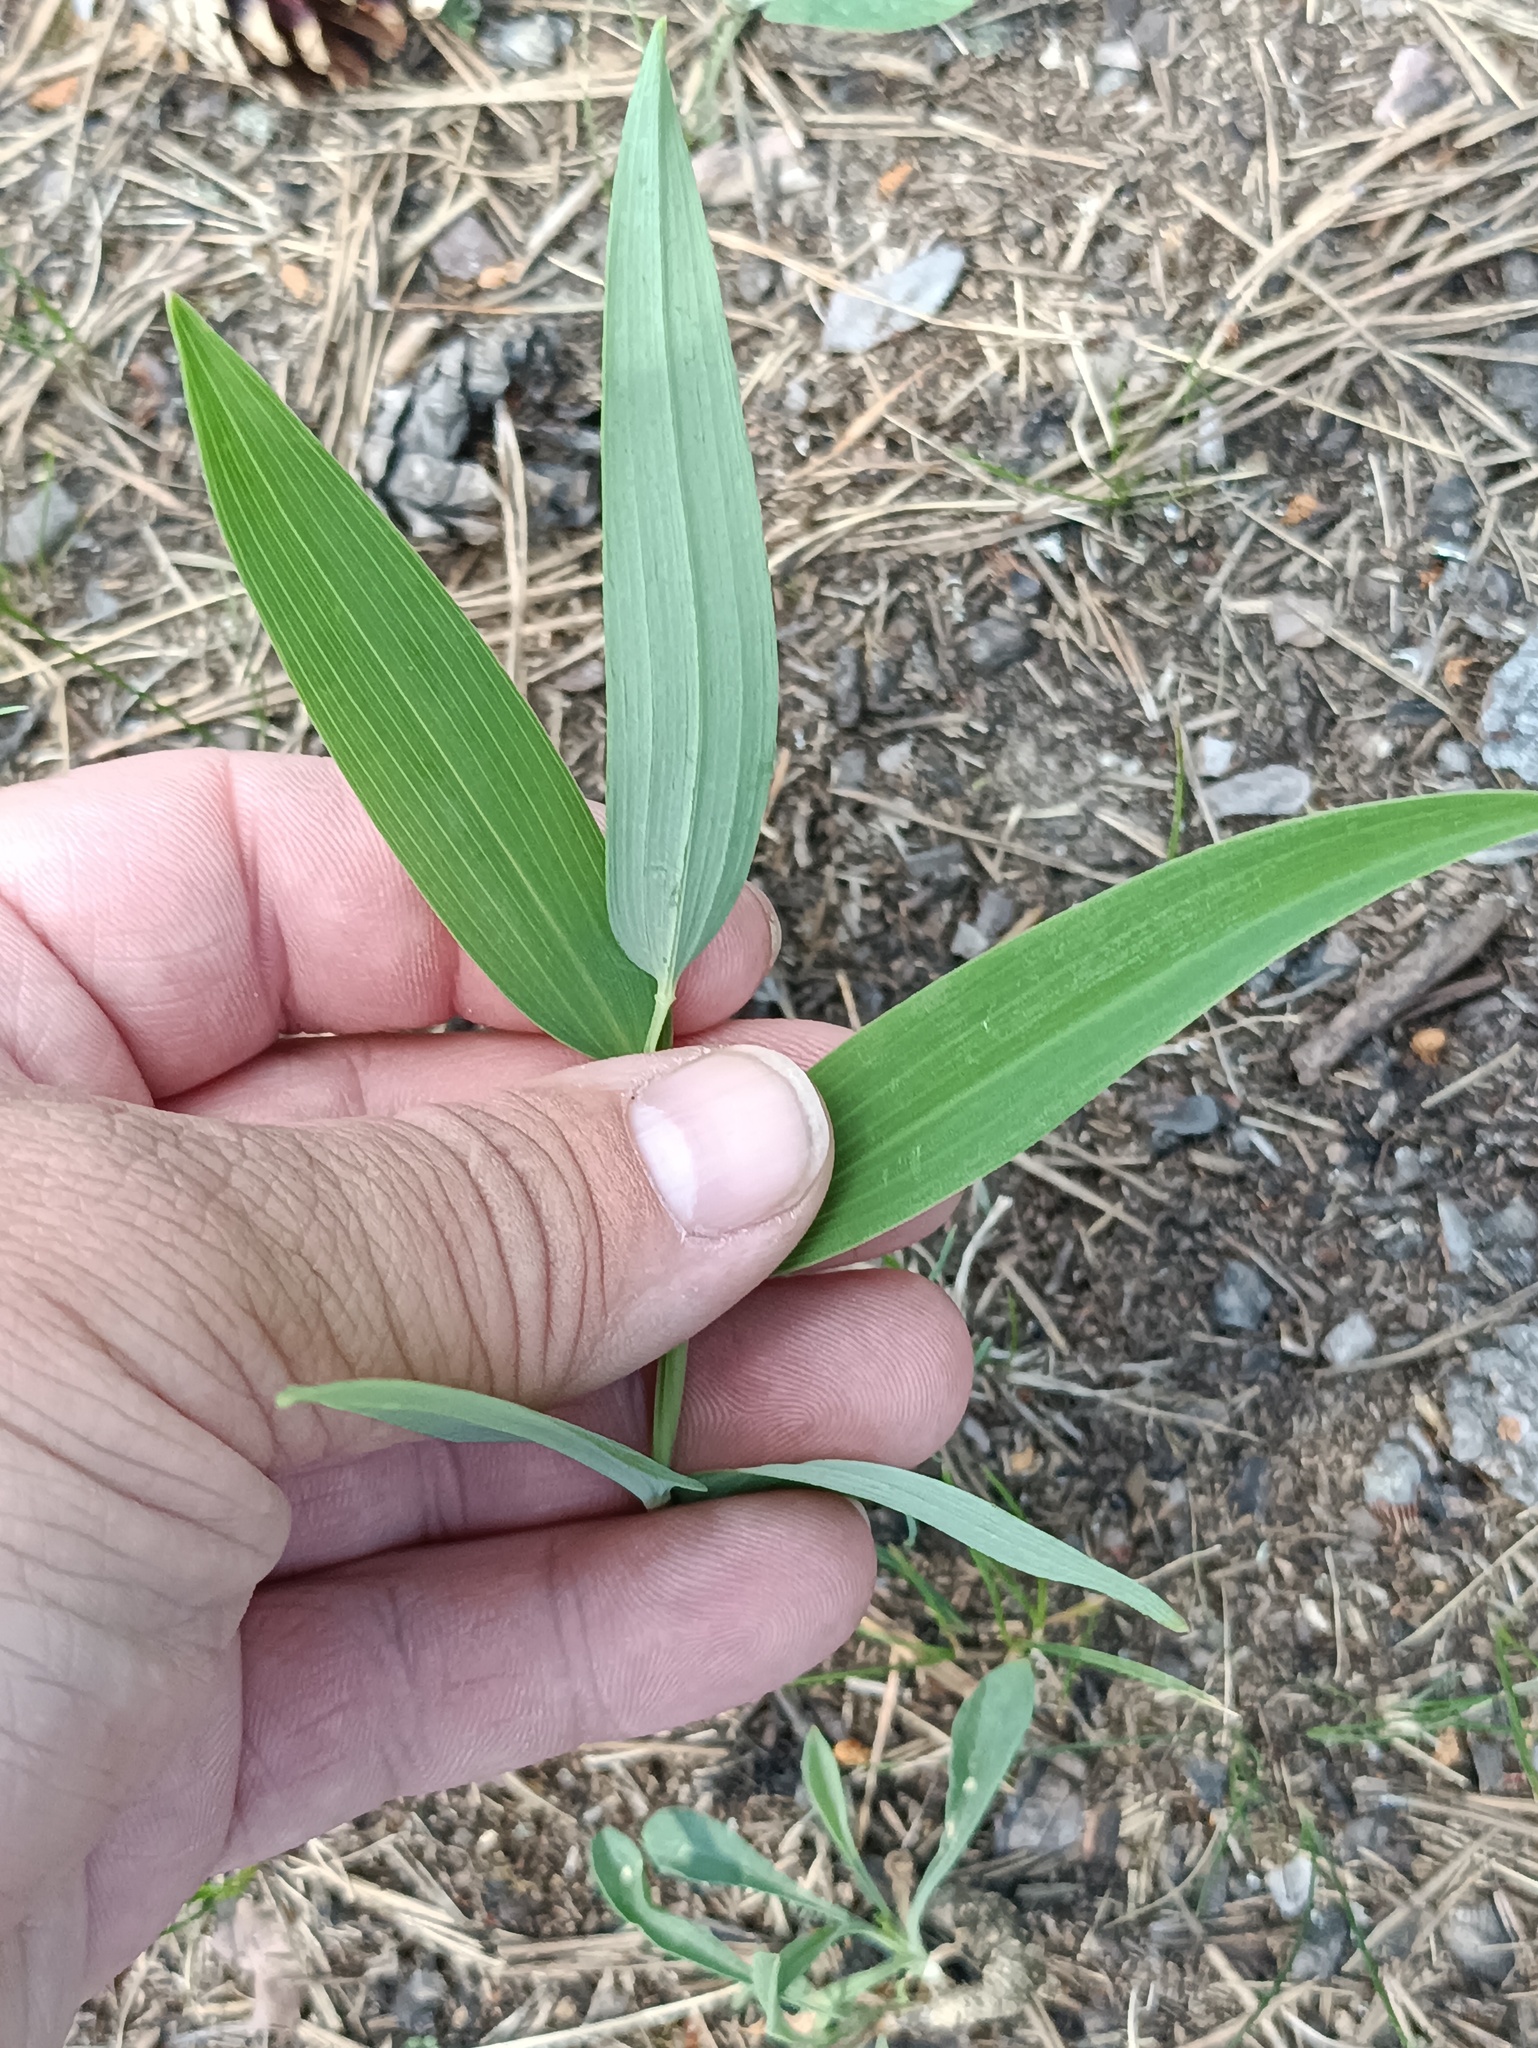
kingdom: Plantae
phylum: Tracheophyta
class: Liliopsida
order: Asparagales
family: Asparagaceae
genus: Polygonatum
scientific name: Polygonatum odoratum
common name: Angular solomon's-seal
